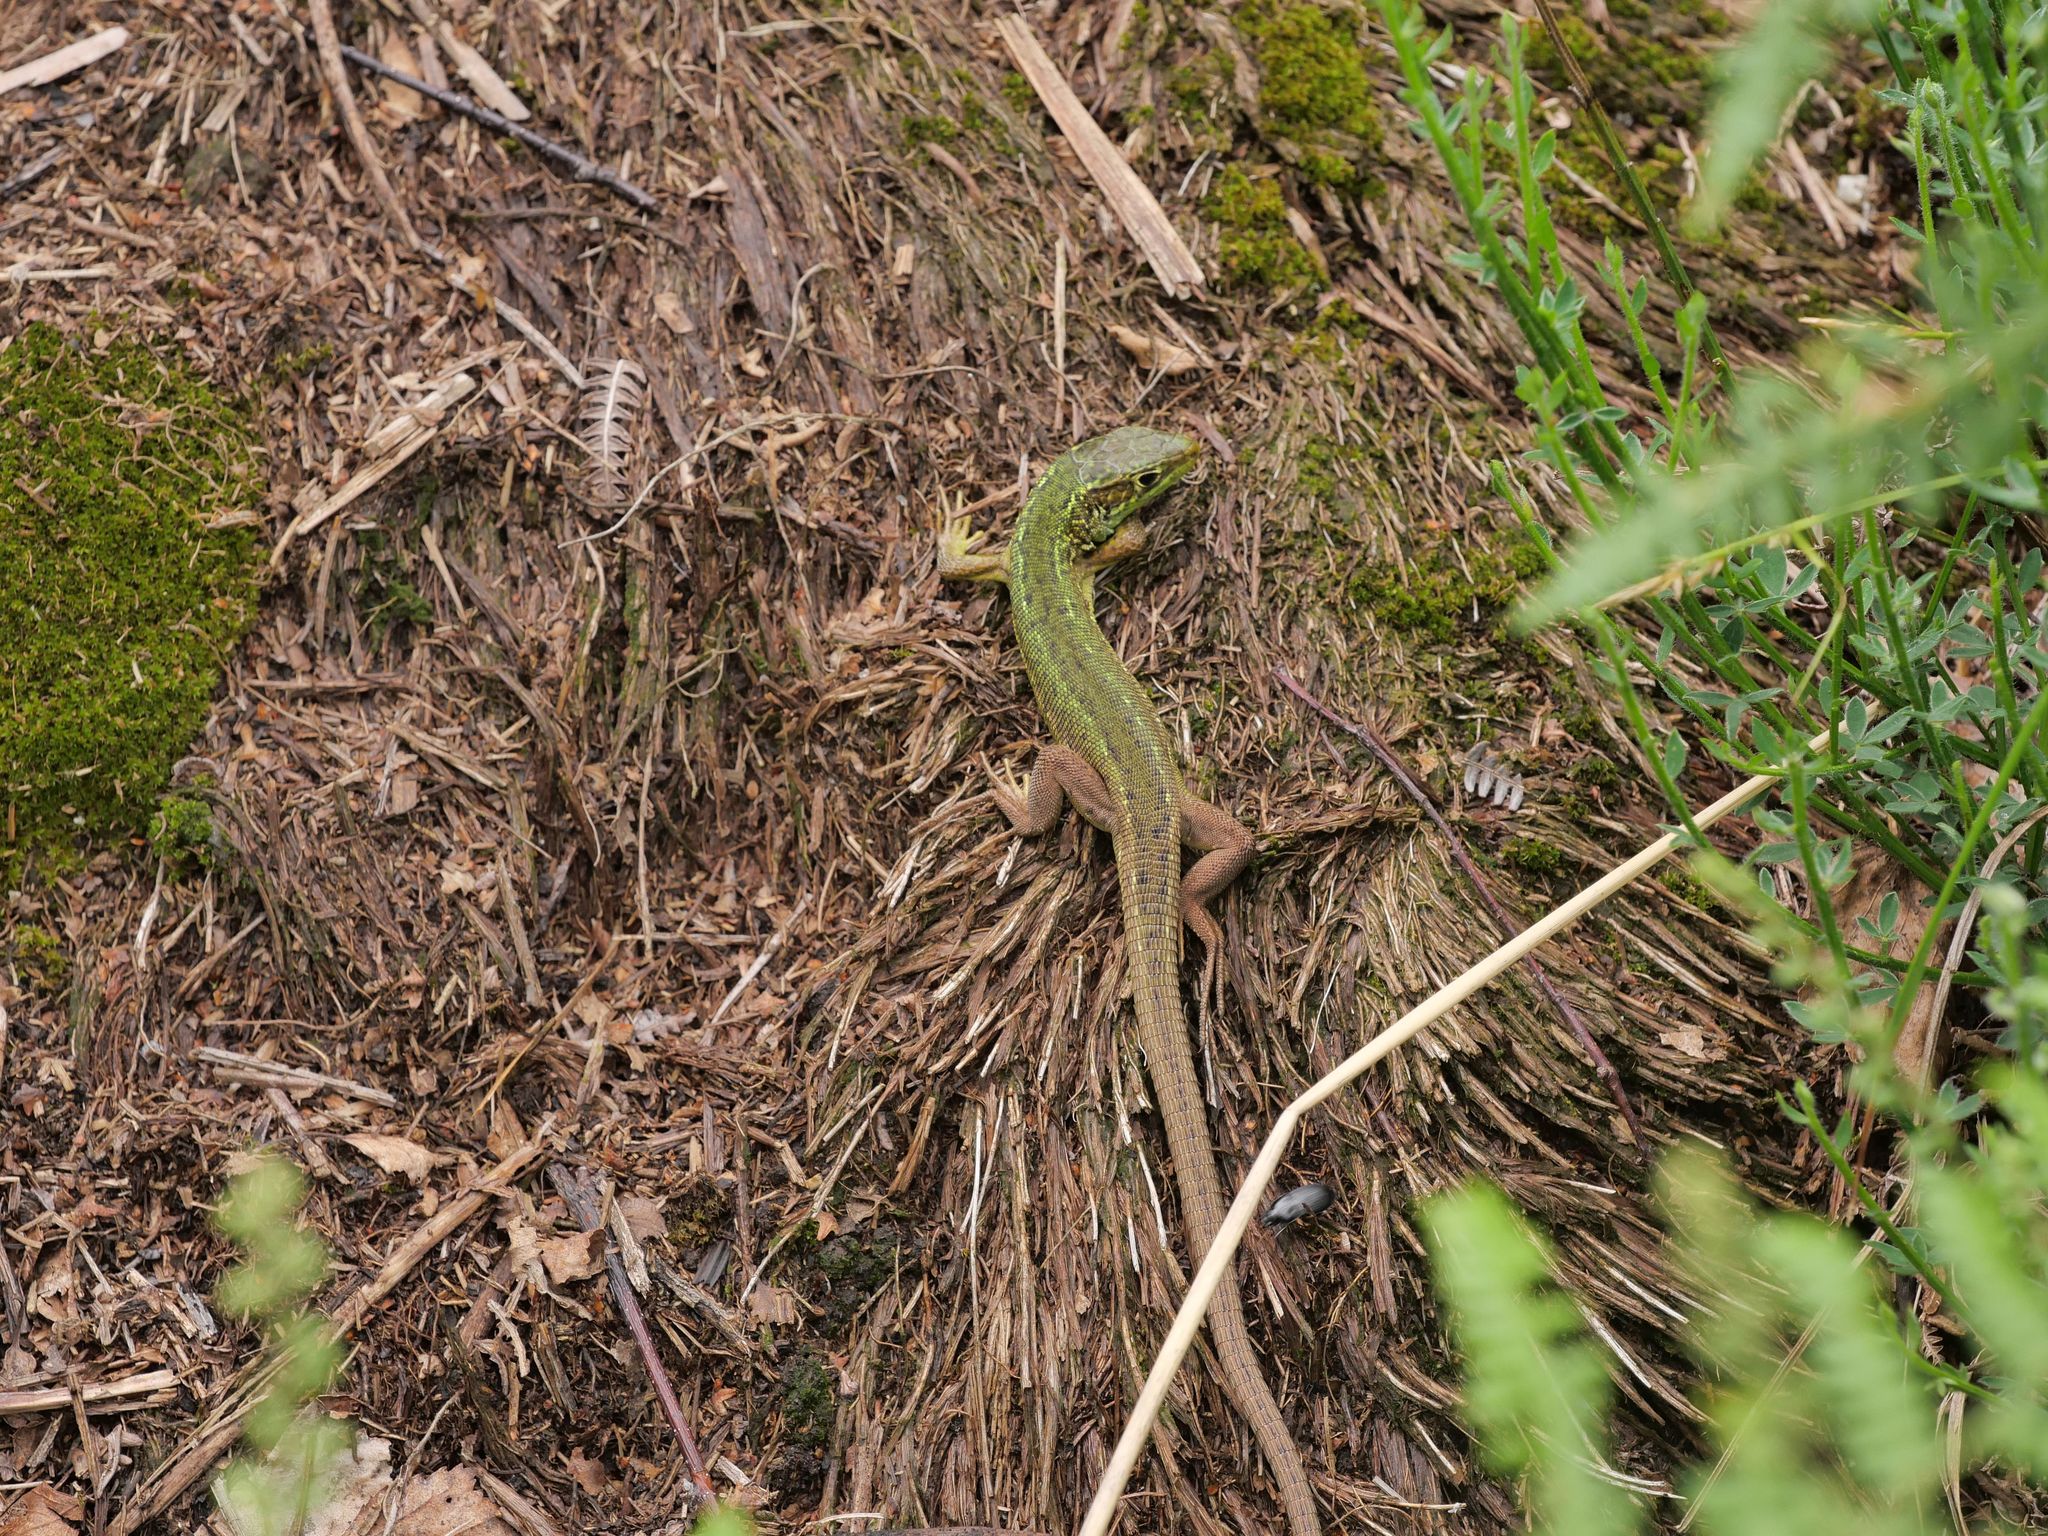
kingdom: Animalia
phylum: Chordata
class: Squamata
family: Lacertidae
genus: Lacerta
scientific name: Lacerta bilineata
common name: Western green lizard
